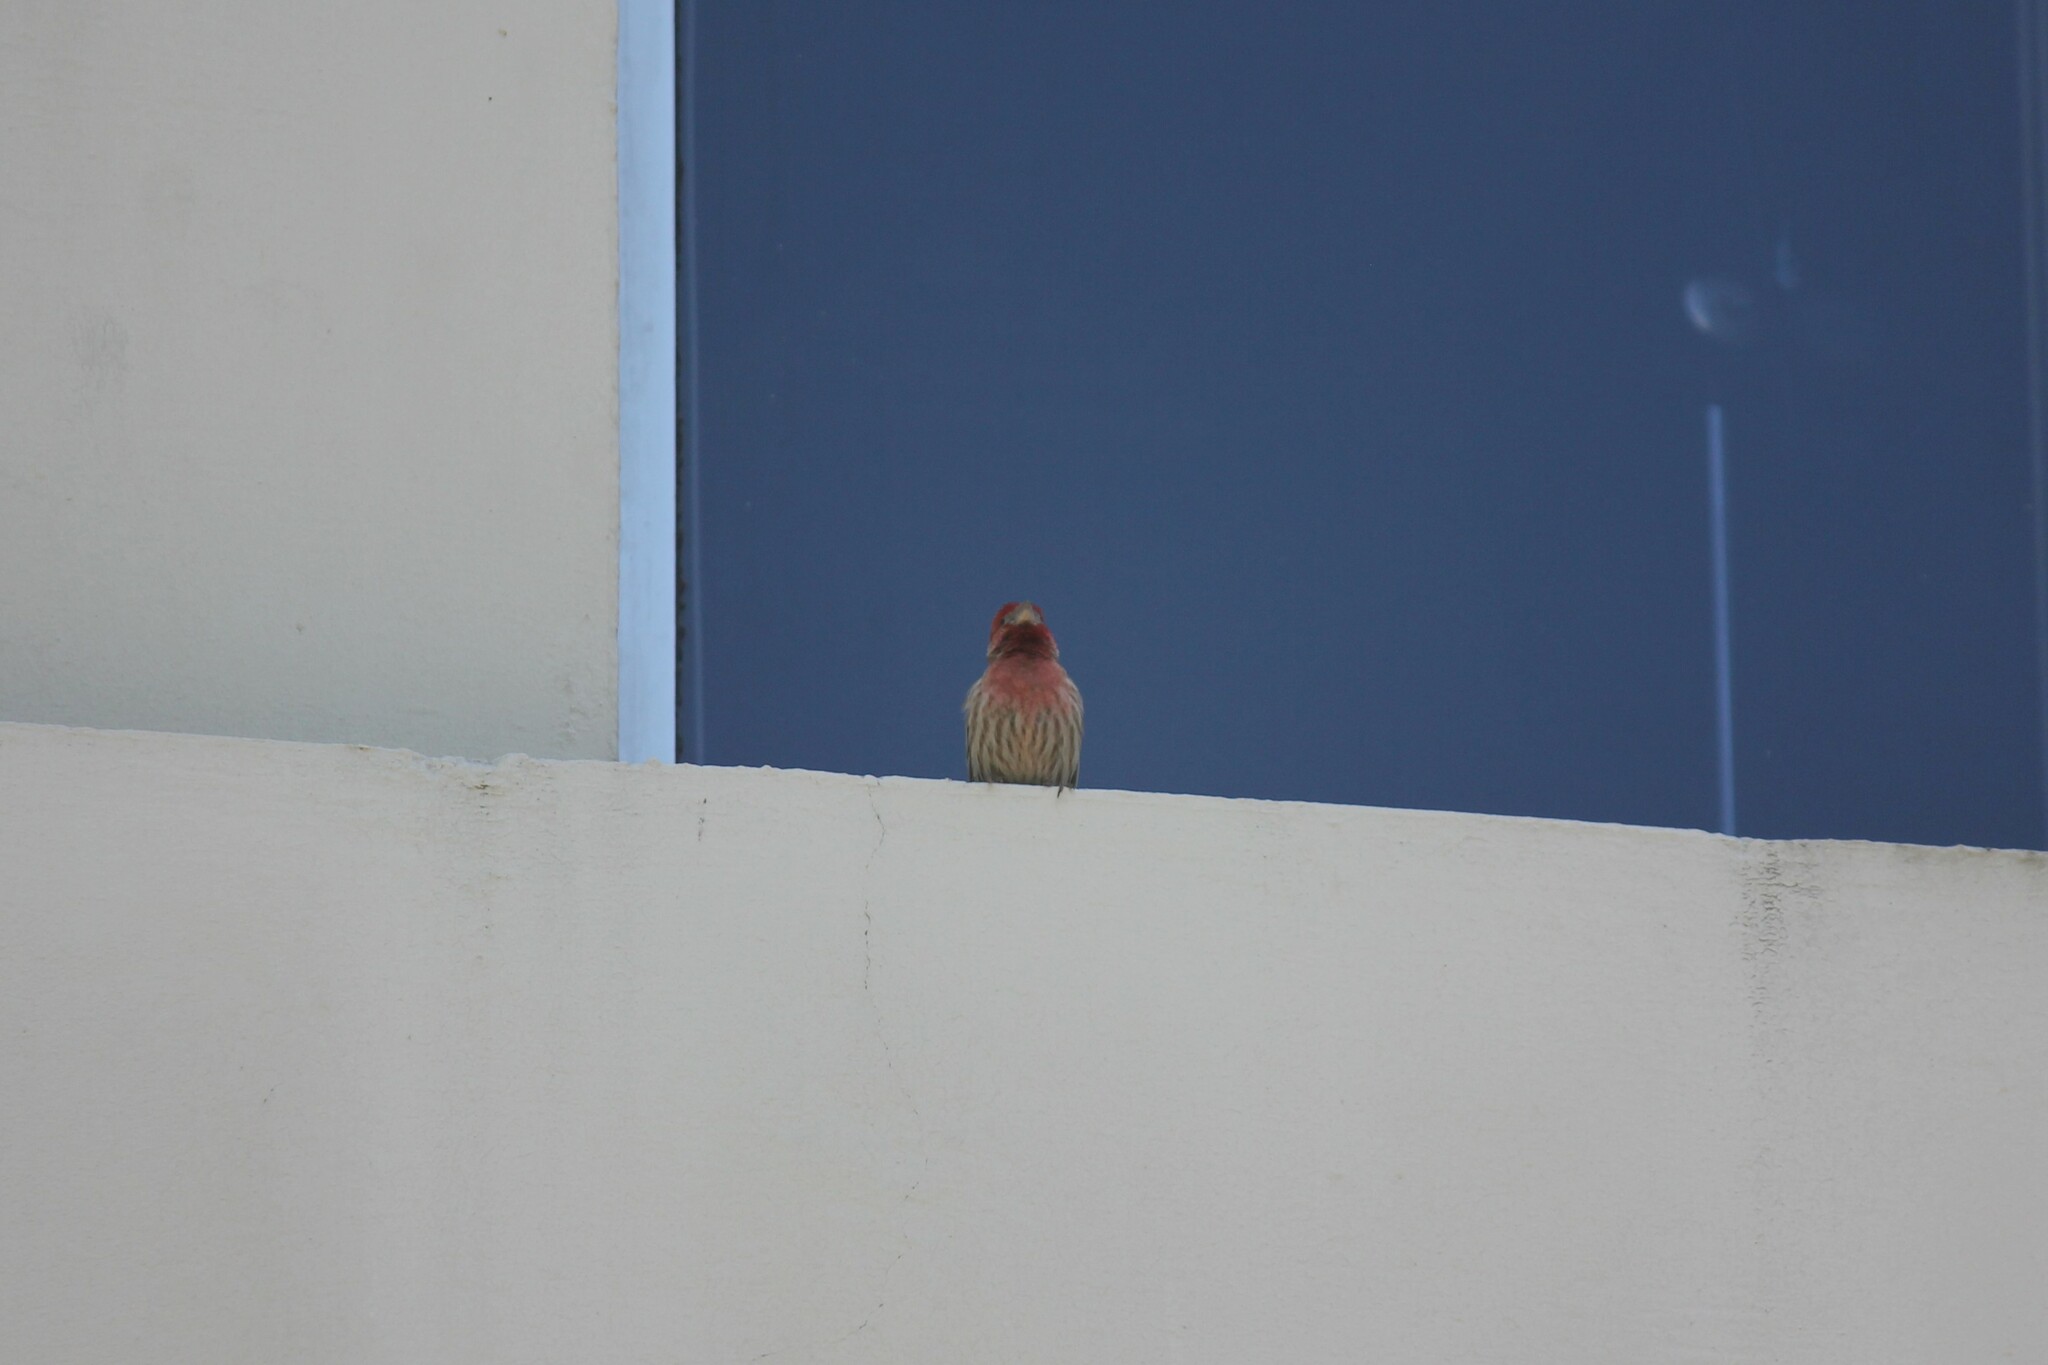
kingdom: Animalia
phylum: Chordata
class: Aves
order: Passeriformes
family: Fringillidae
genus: Haemorhous
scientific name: Haemorhous mexicanus
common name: House finch
